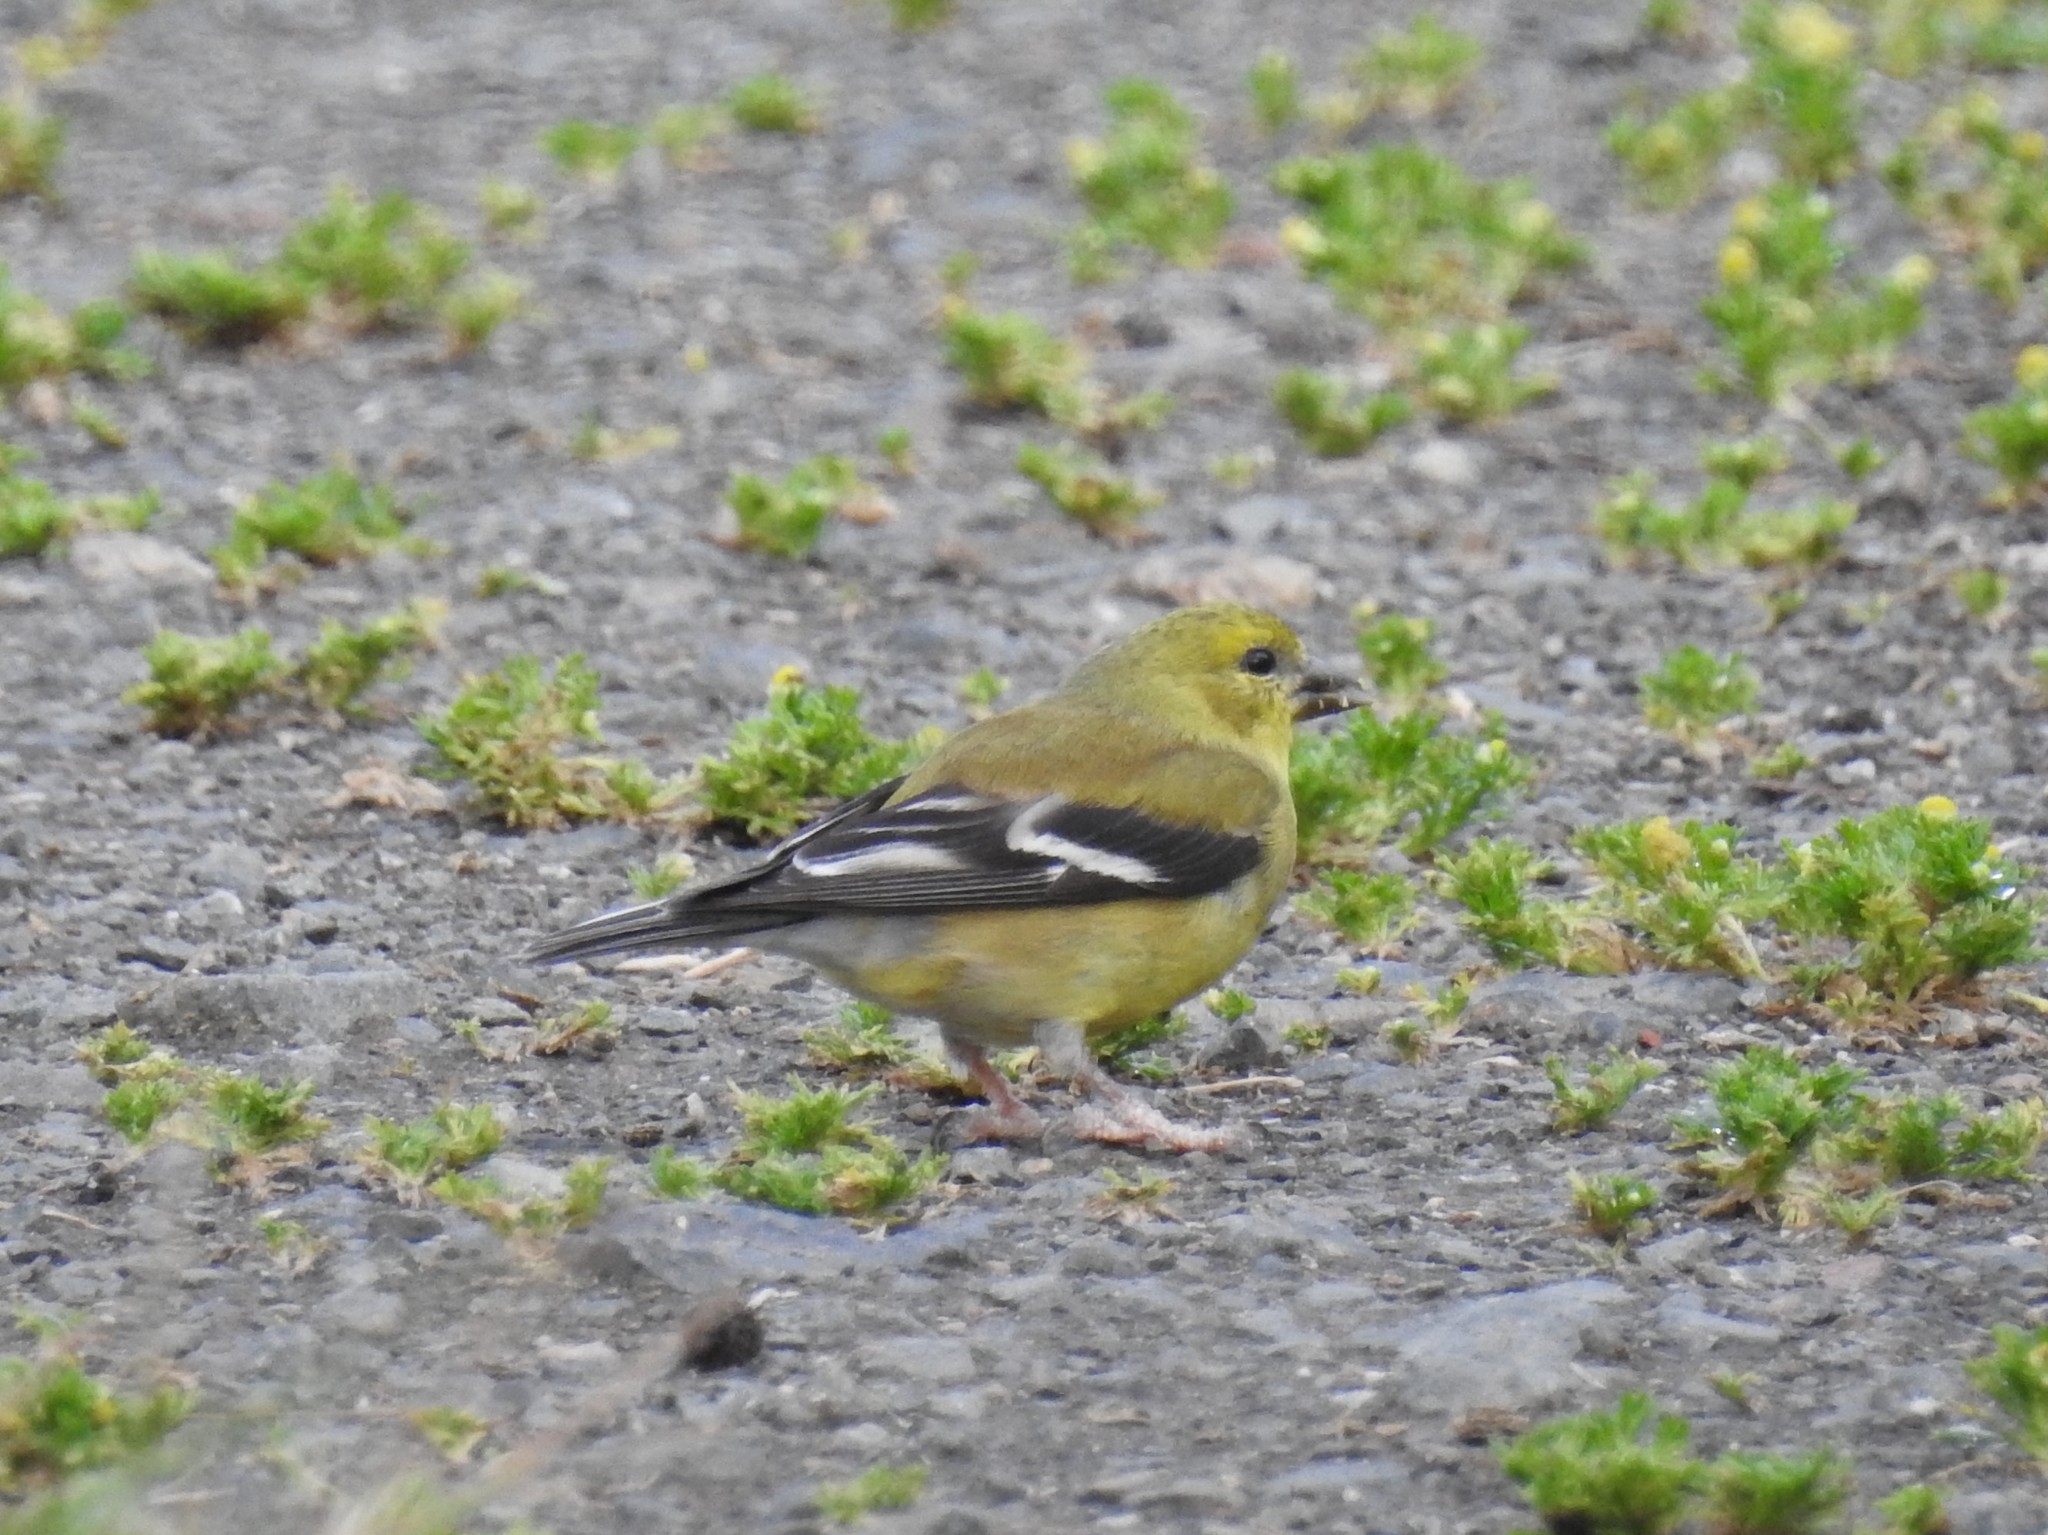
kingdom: Animalia
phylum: Chordata
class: Aves
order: Passeriformes
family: Fringillidae
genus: Spinus
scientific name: Spinus tristis
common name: American goldfinch
